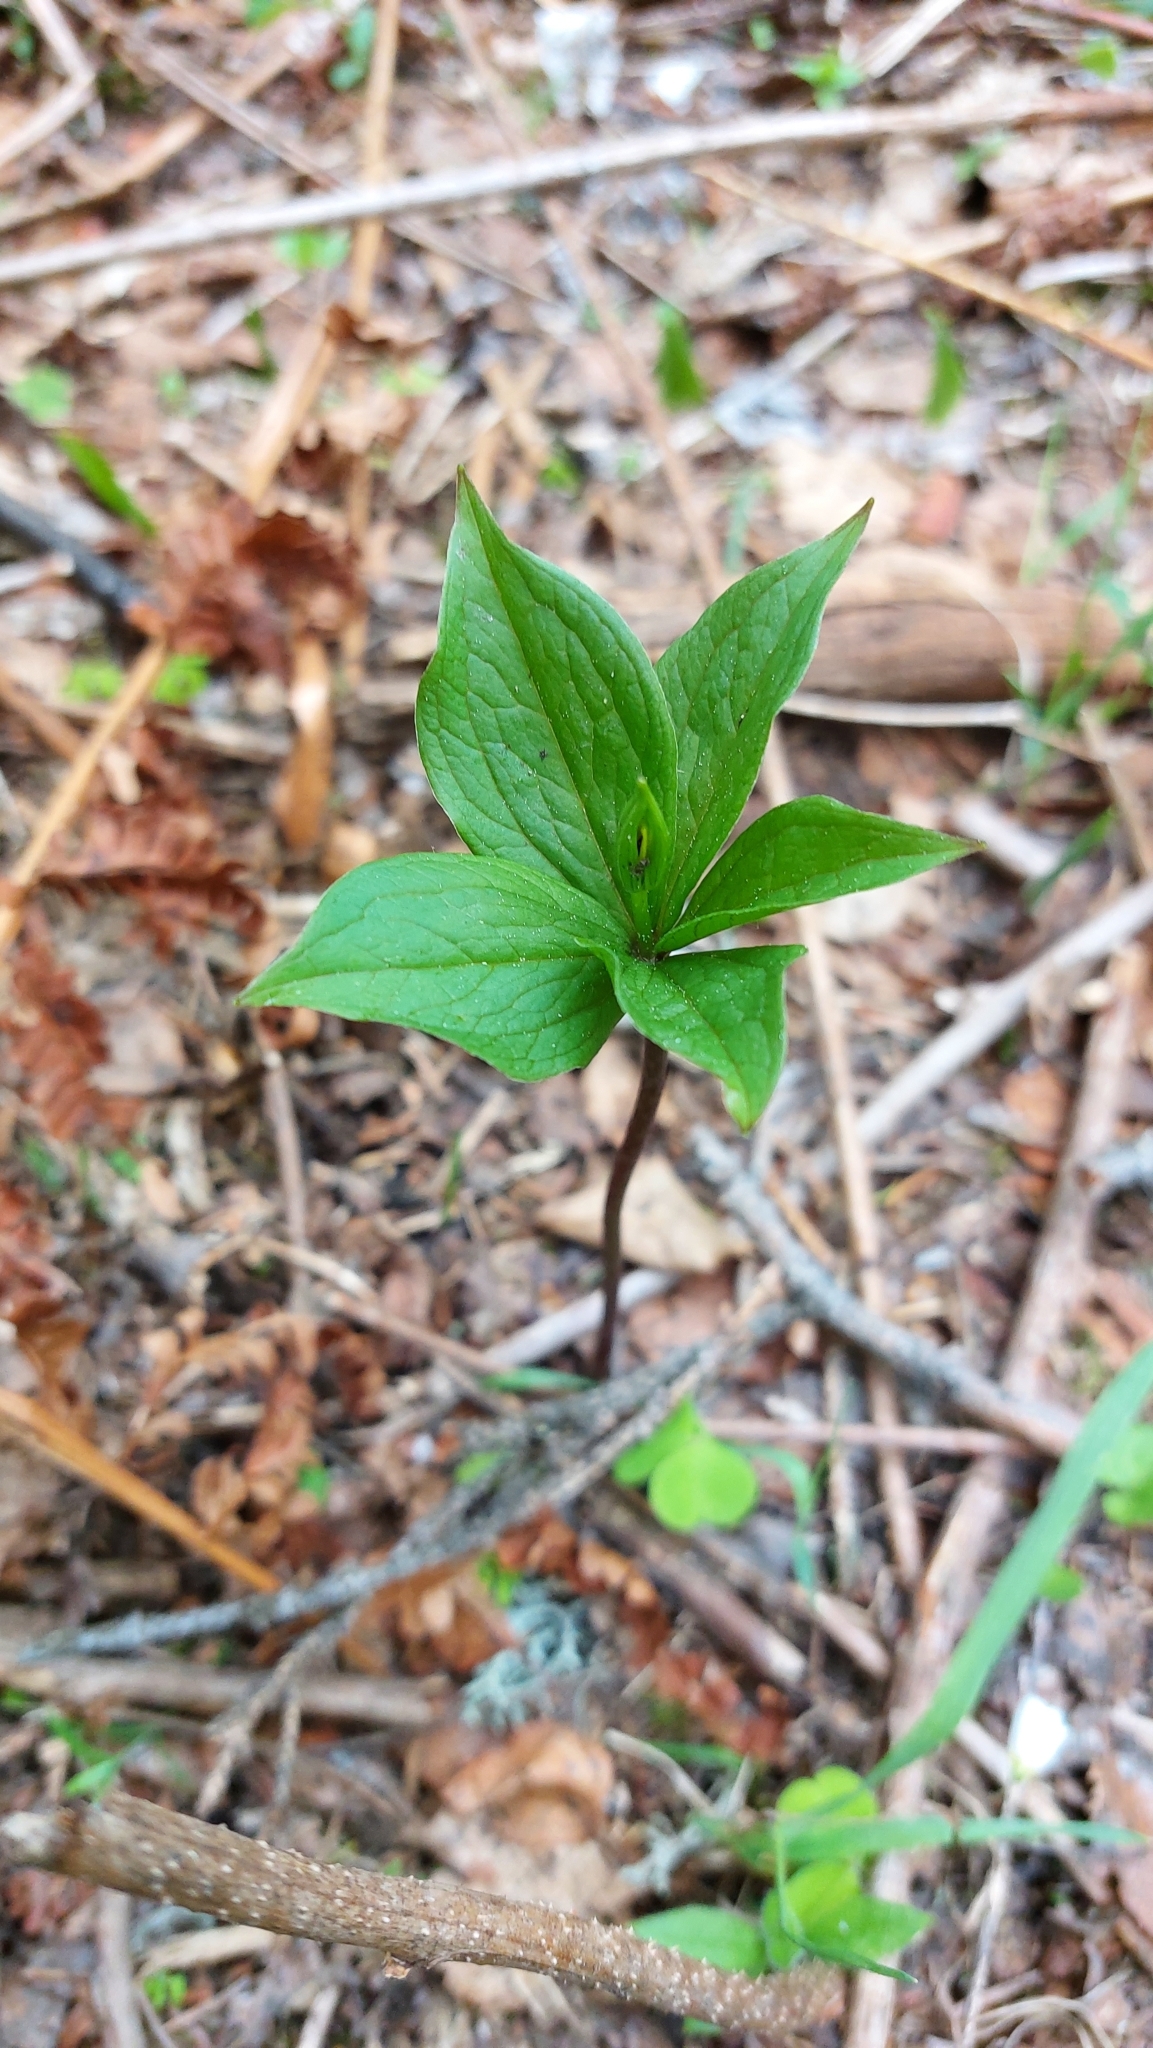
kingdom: Plantae
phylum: Tracheophyta
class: Liliopsida
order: Liliales
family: Melanthiaceae
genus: Paris
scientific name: Paris quadrifolia
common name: Herb-paris
